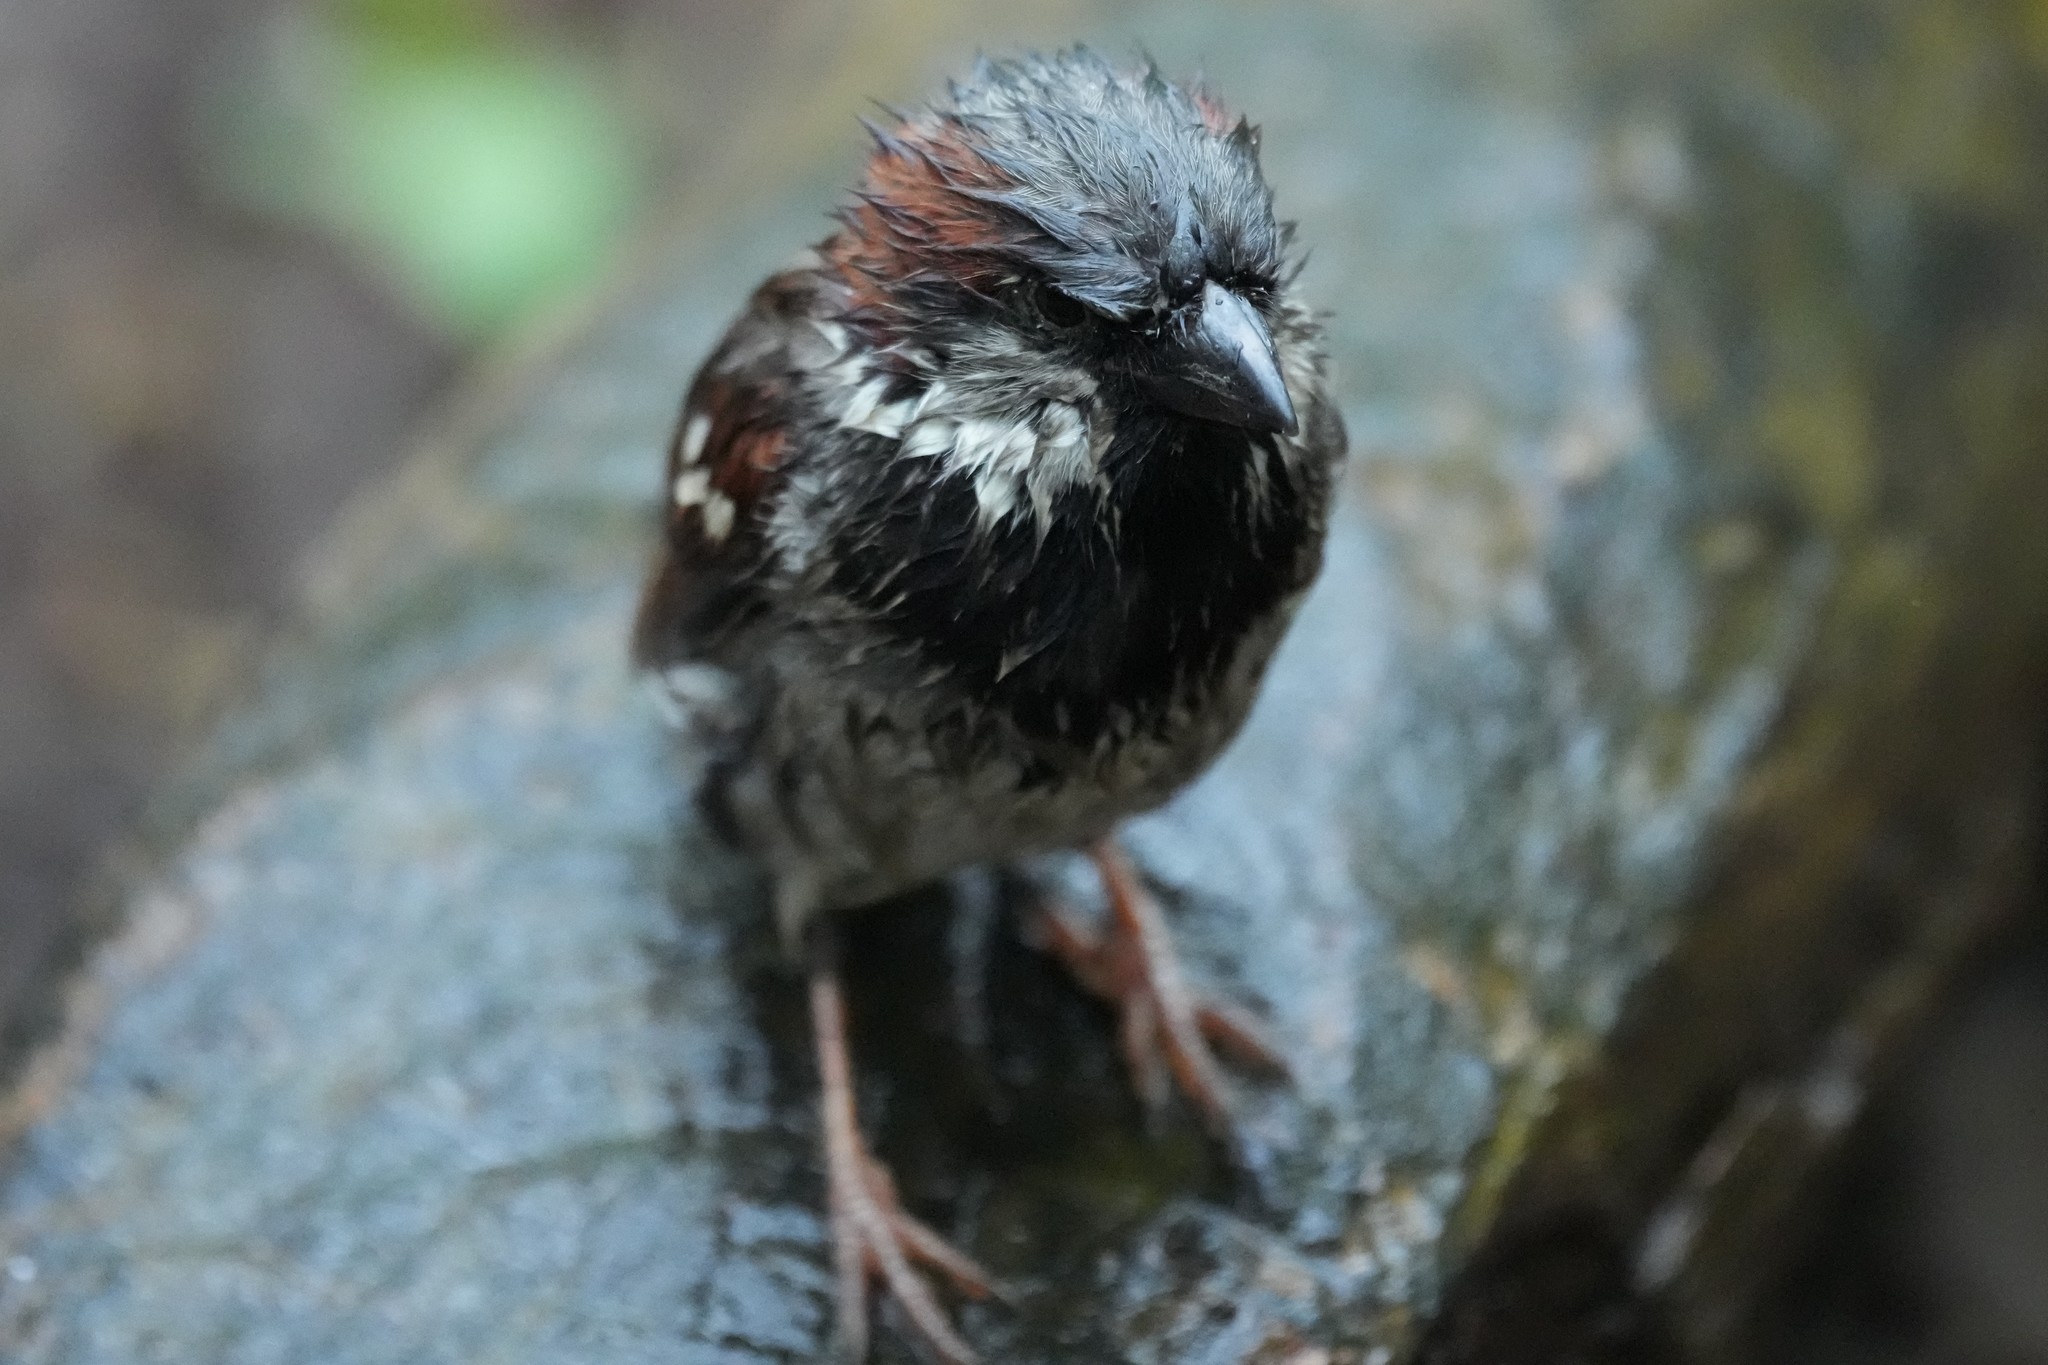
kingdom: Animalia
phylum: Chordata
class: Aves
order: Passeriformes
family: Passeridae
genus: Passer
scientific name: Passer domesticus
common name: House sparrow
